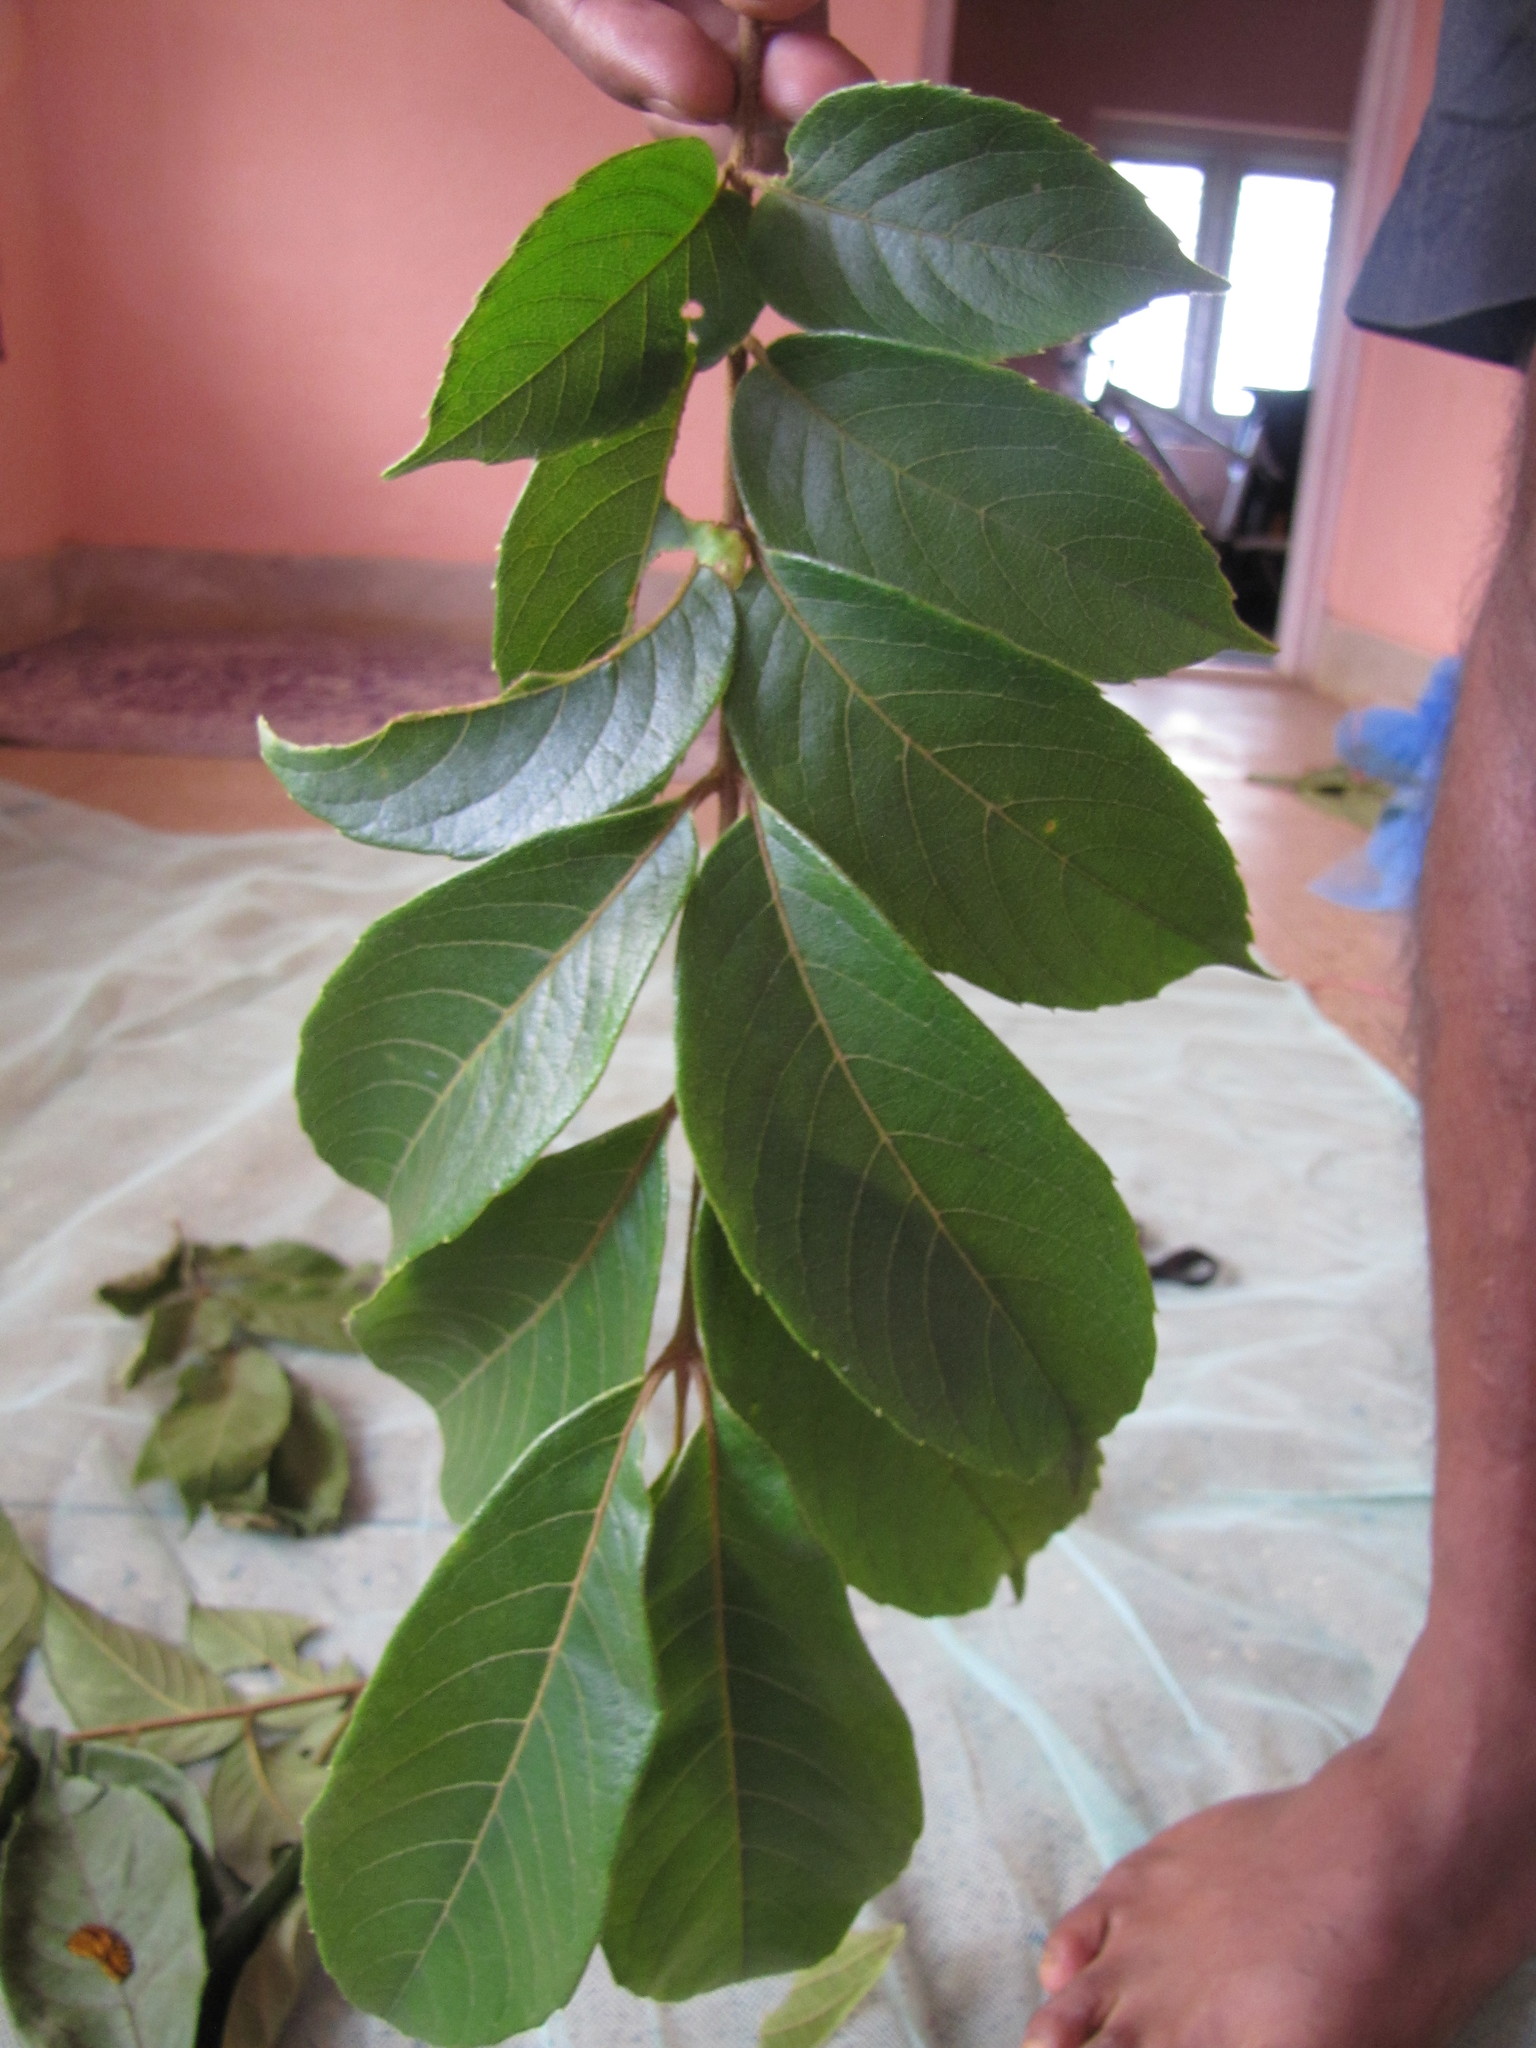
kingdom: Plantae
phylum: Tracheophyta
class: Magnoliopsida
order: Proteales
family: Sabiaceae
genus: Meliosma
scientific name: Meliosma pinnata
